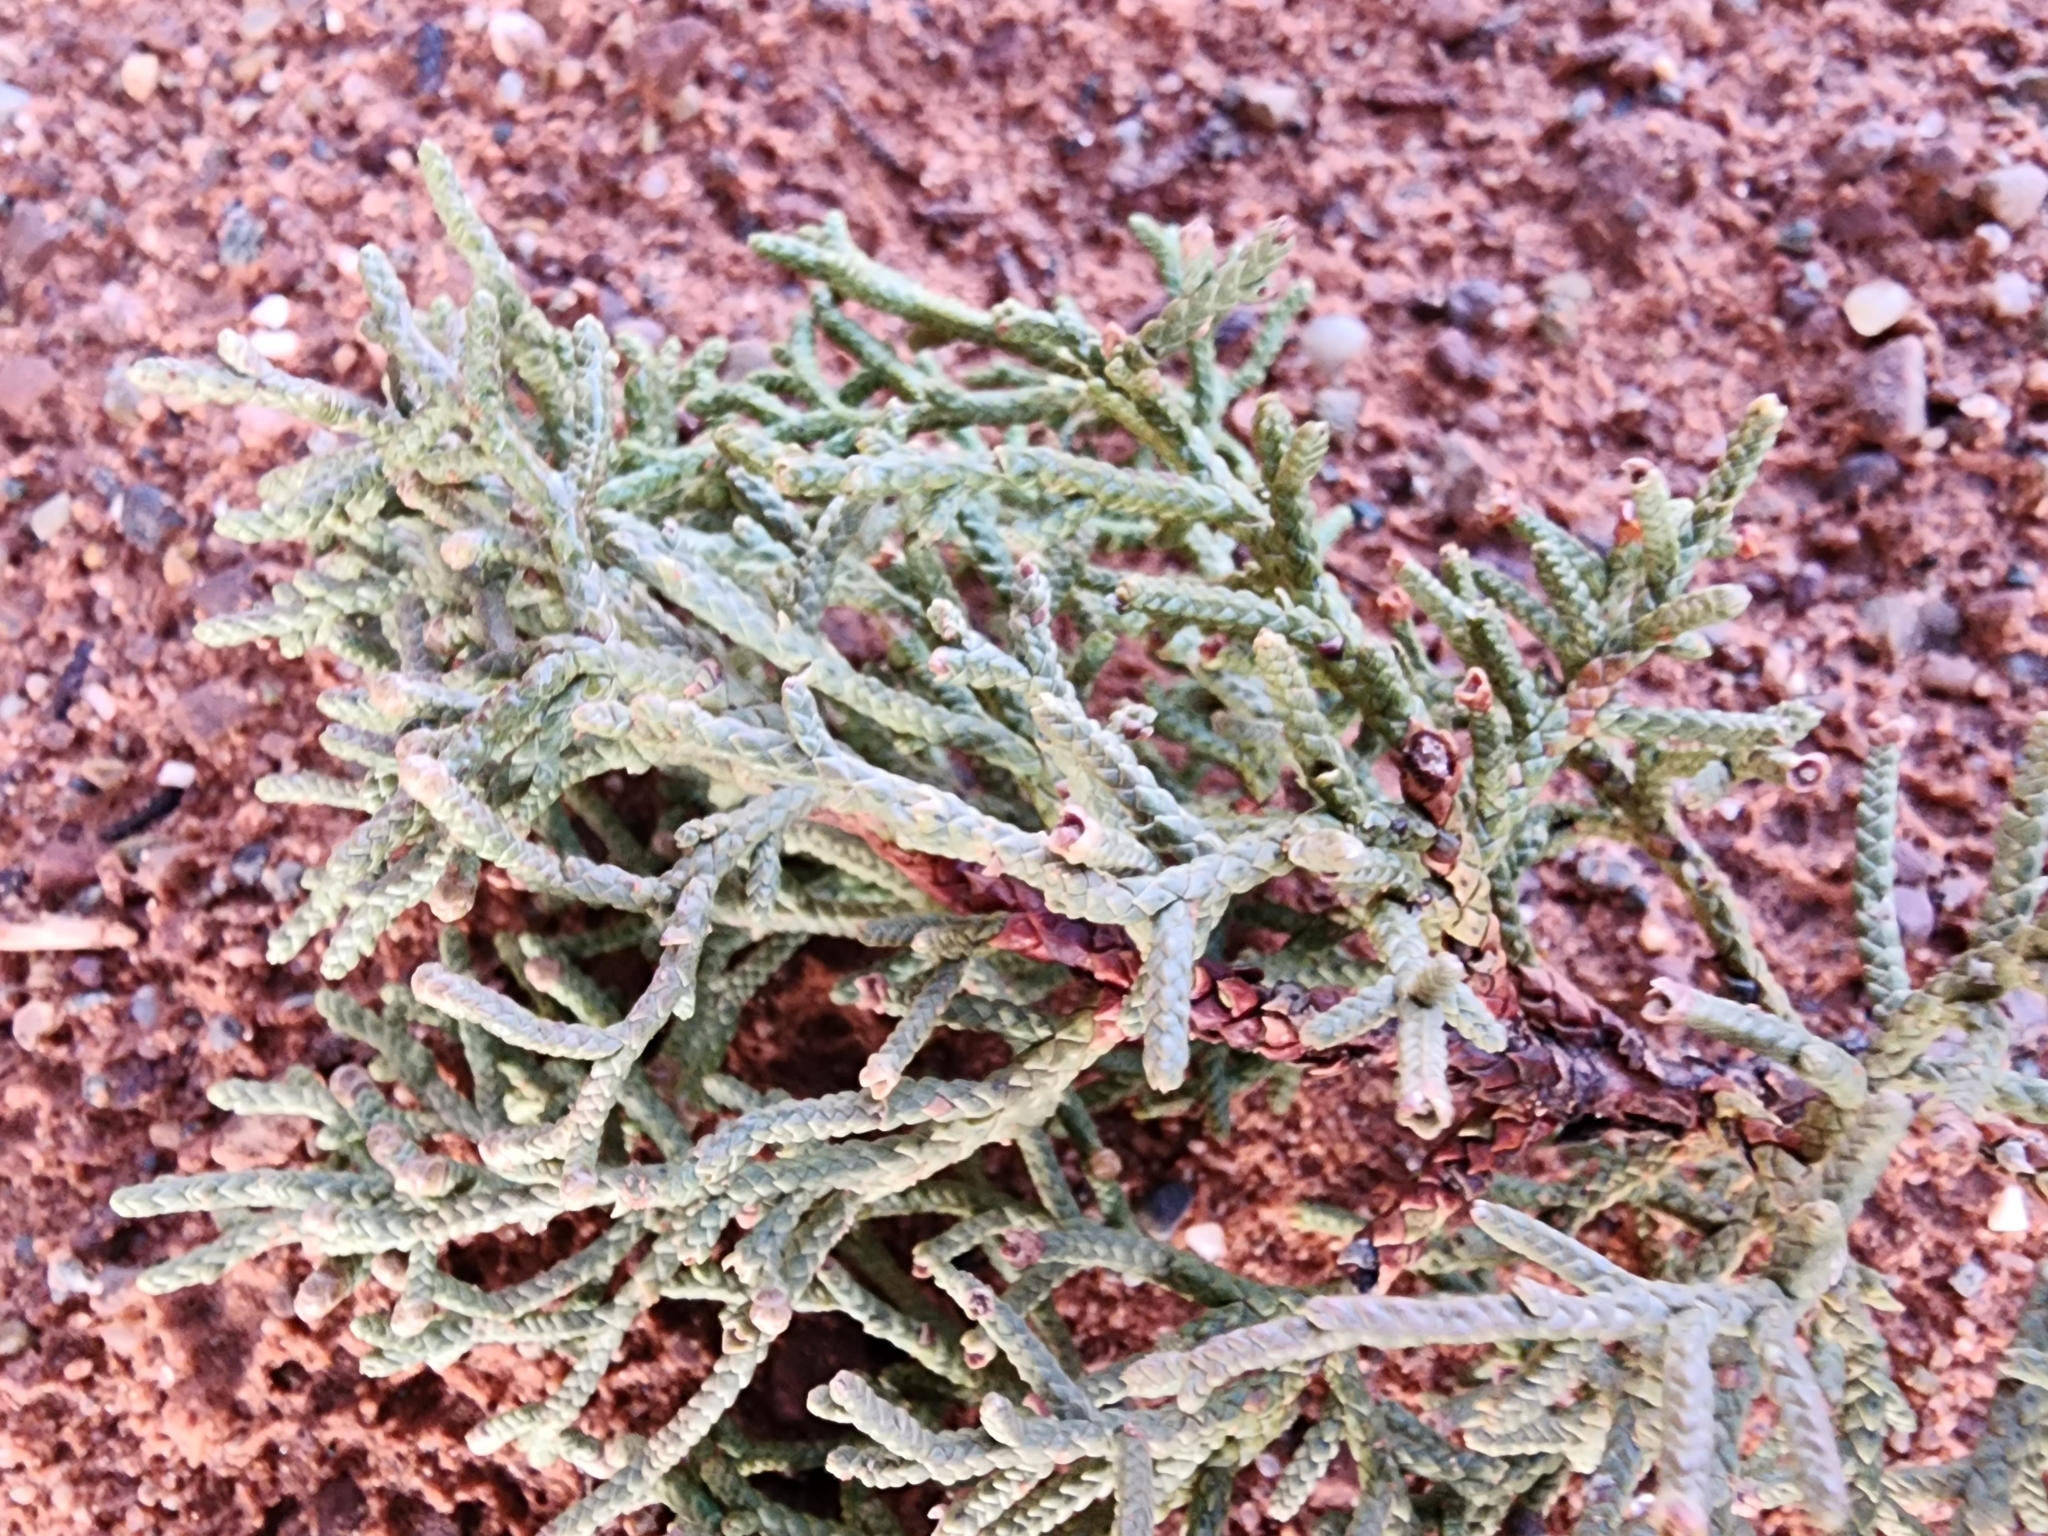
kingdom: Plantae
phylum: Tracheophyta
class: Pinopsida
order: Pinales
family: Cupressaceae
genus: Juniperus
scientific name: Juniperus osteosperma
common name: Utah juniper
